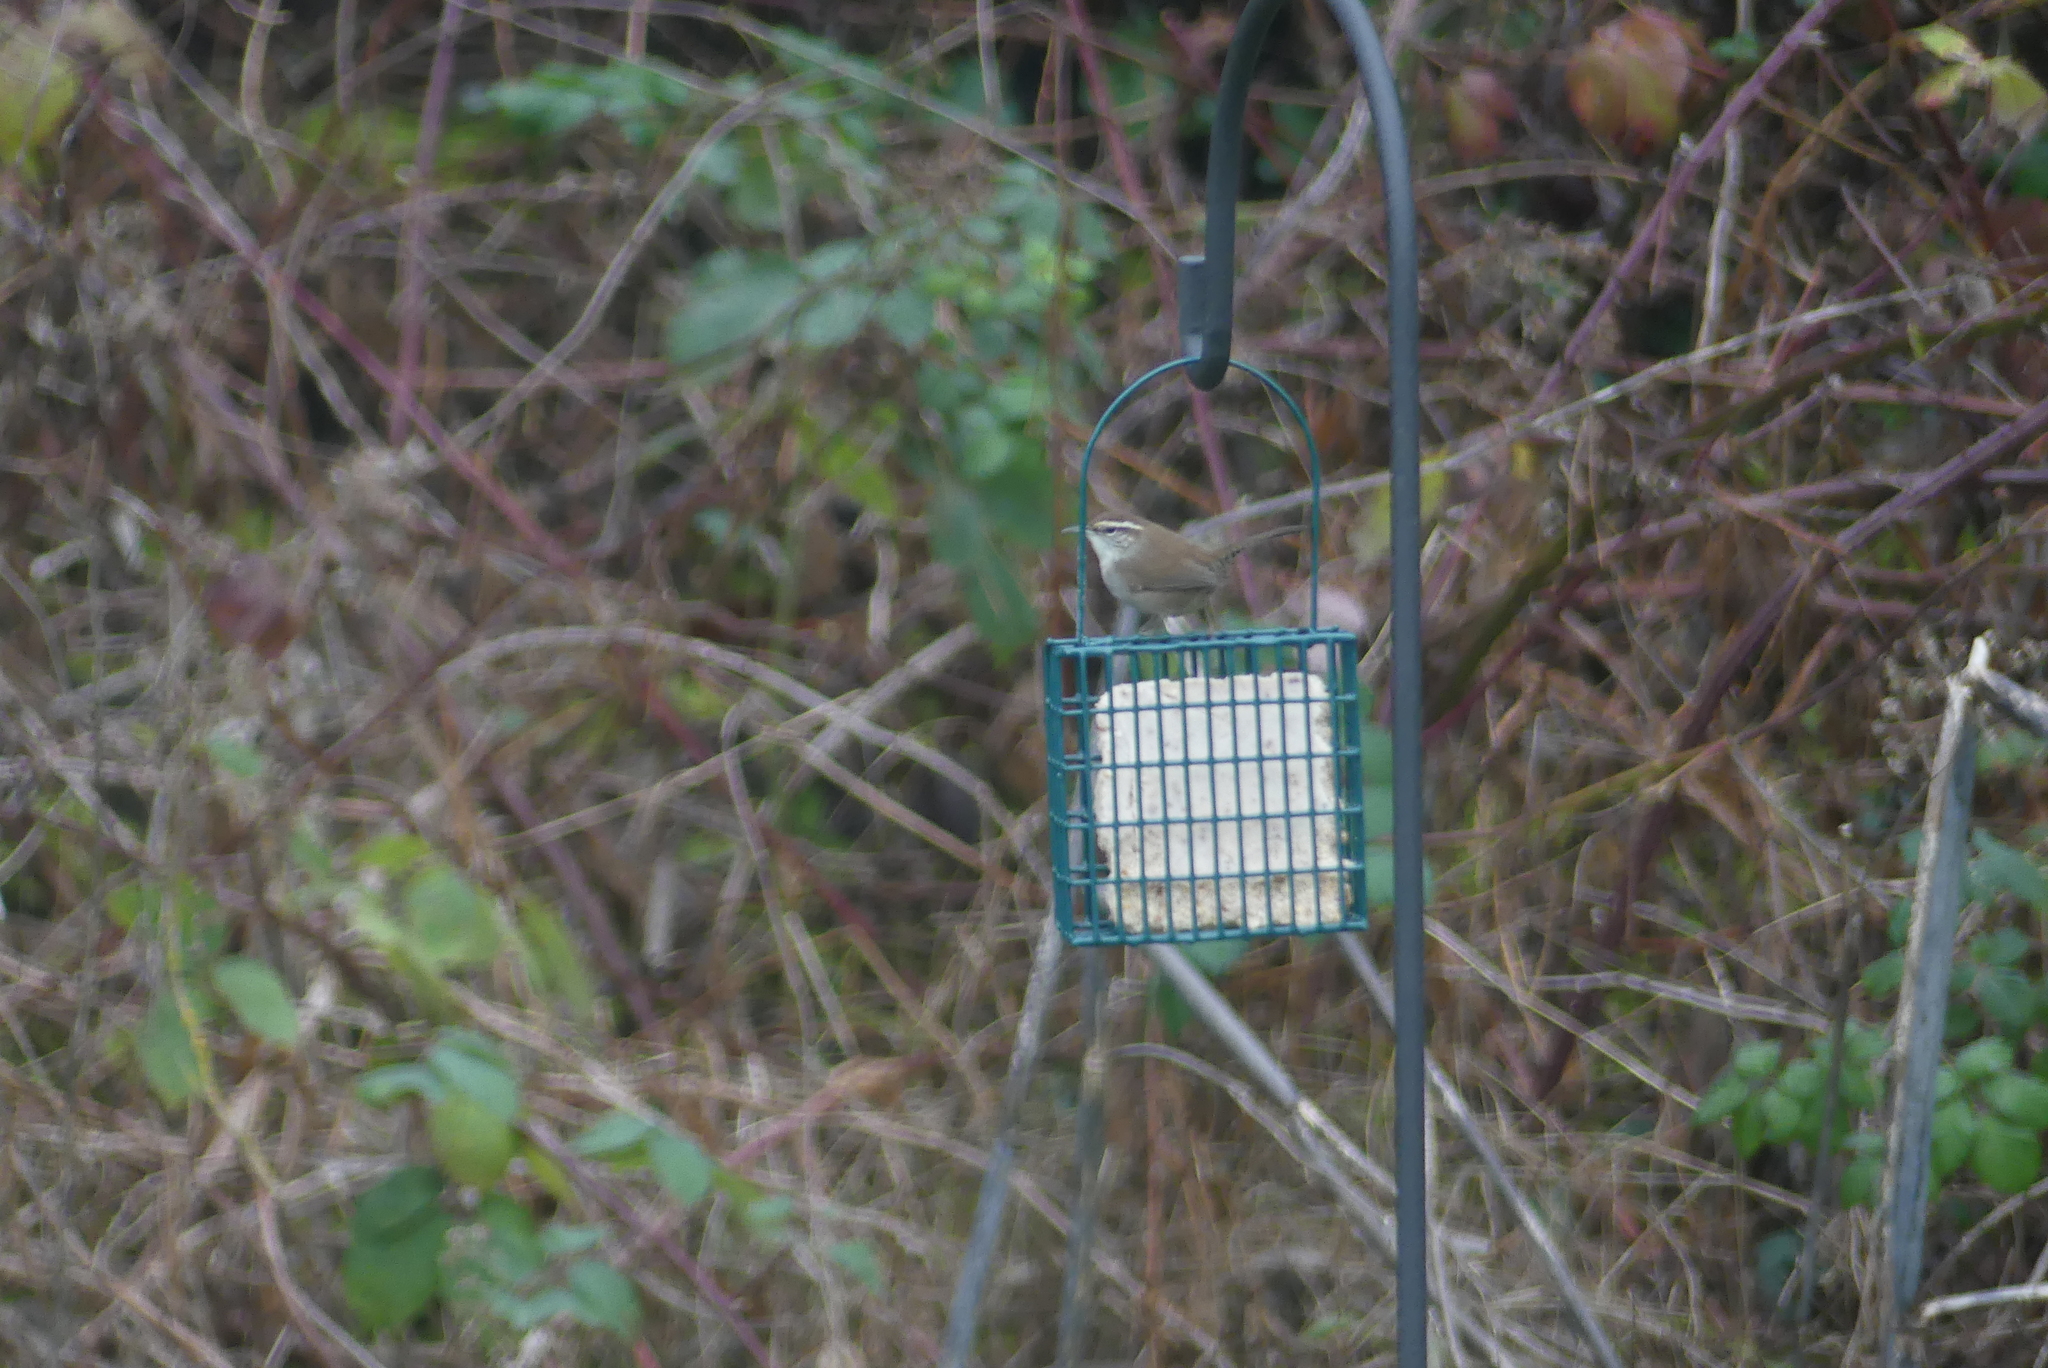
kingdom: Animalia
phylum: Chordata
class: Aves
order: Passeriformes
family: Troglodytidae
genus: Thryomanes
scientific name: Thryomanes bewickii
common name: Bewick's wren
